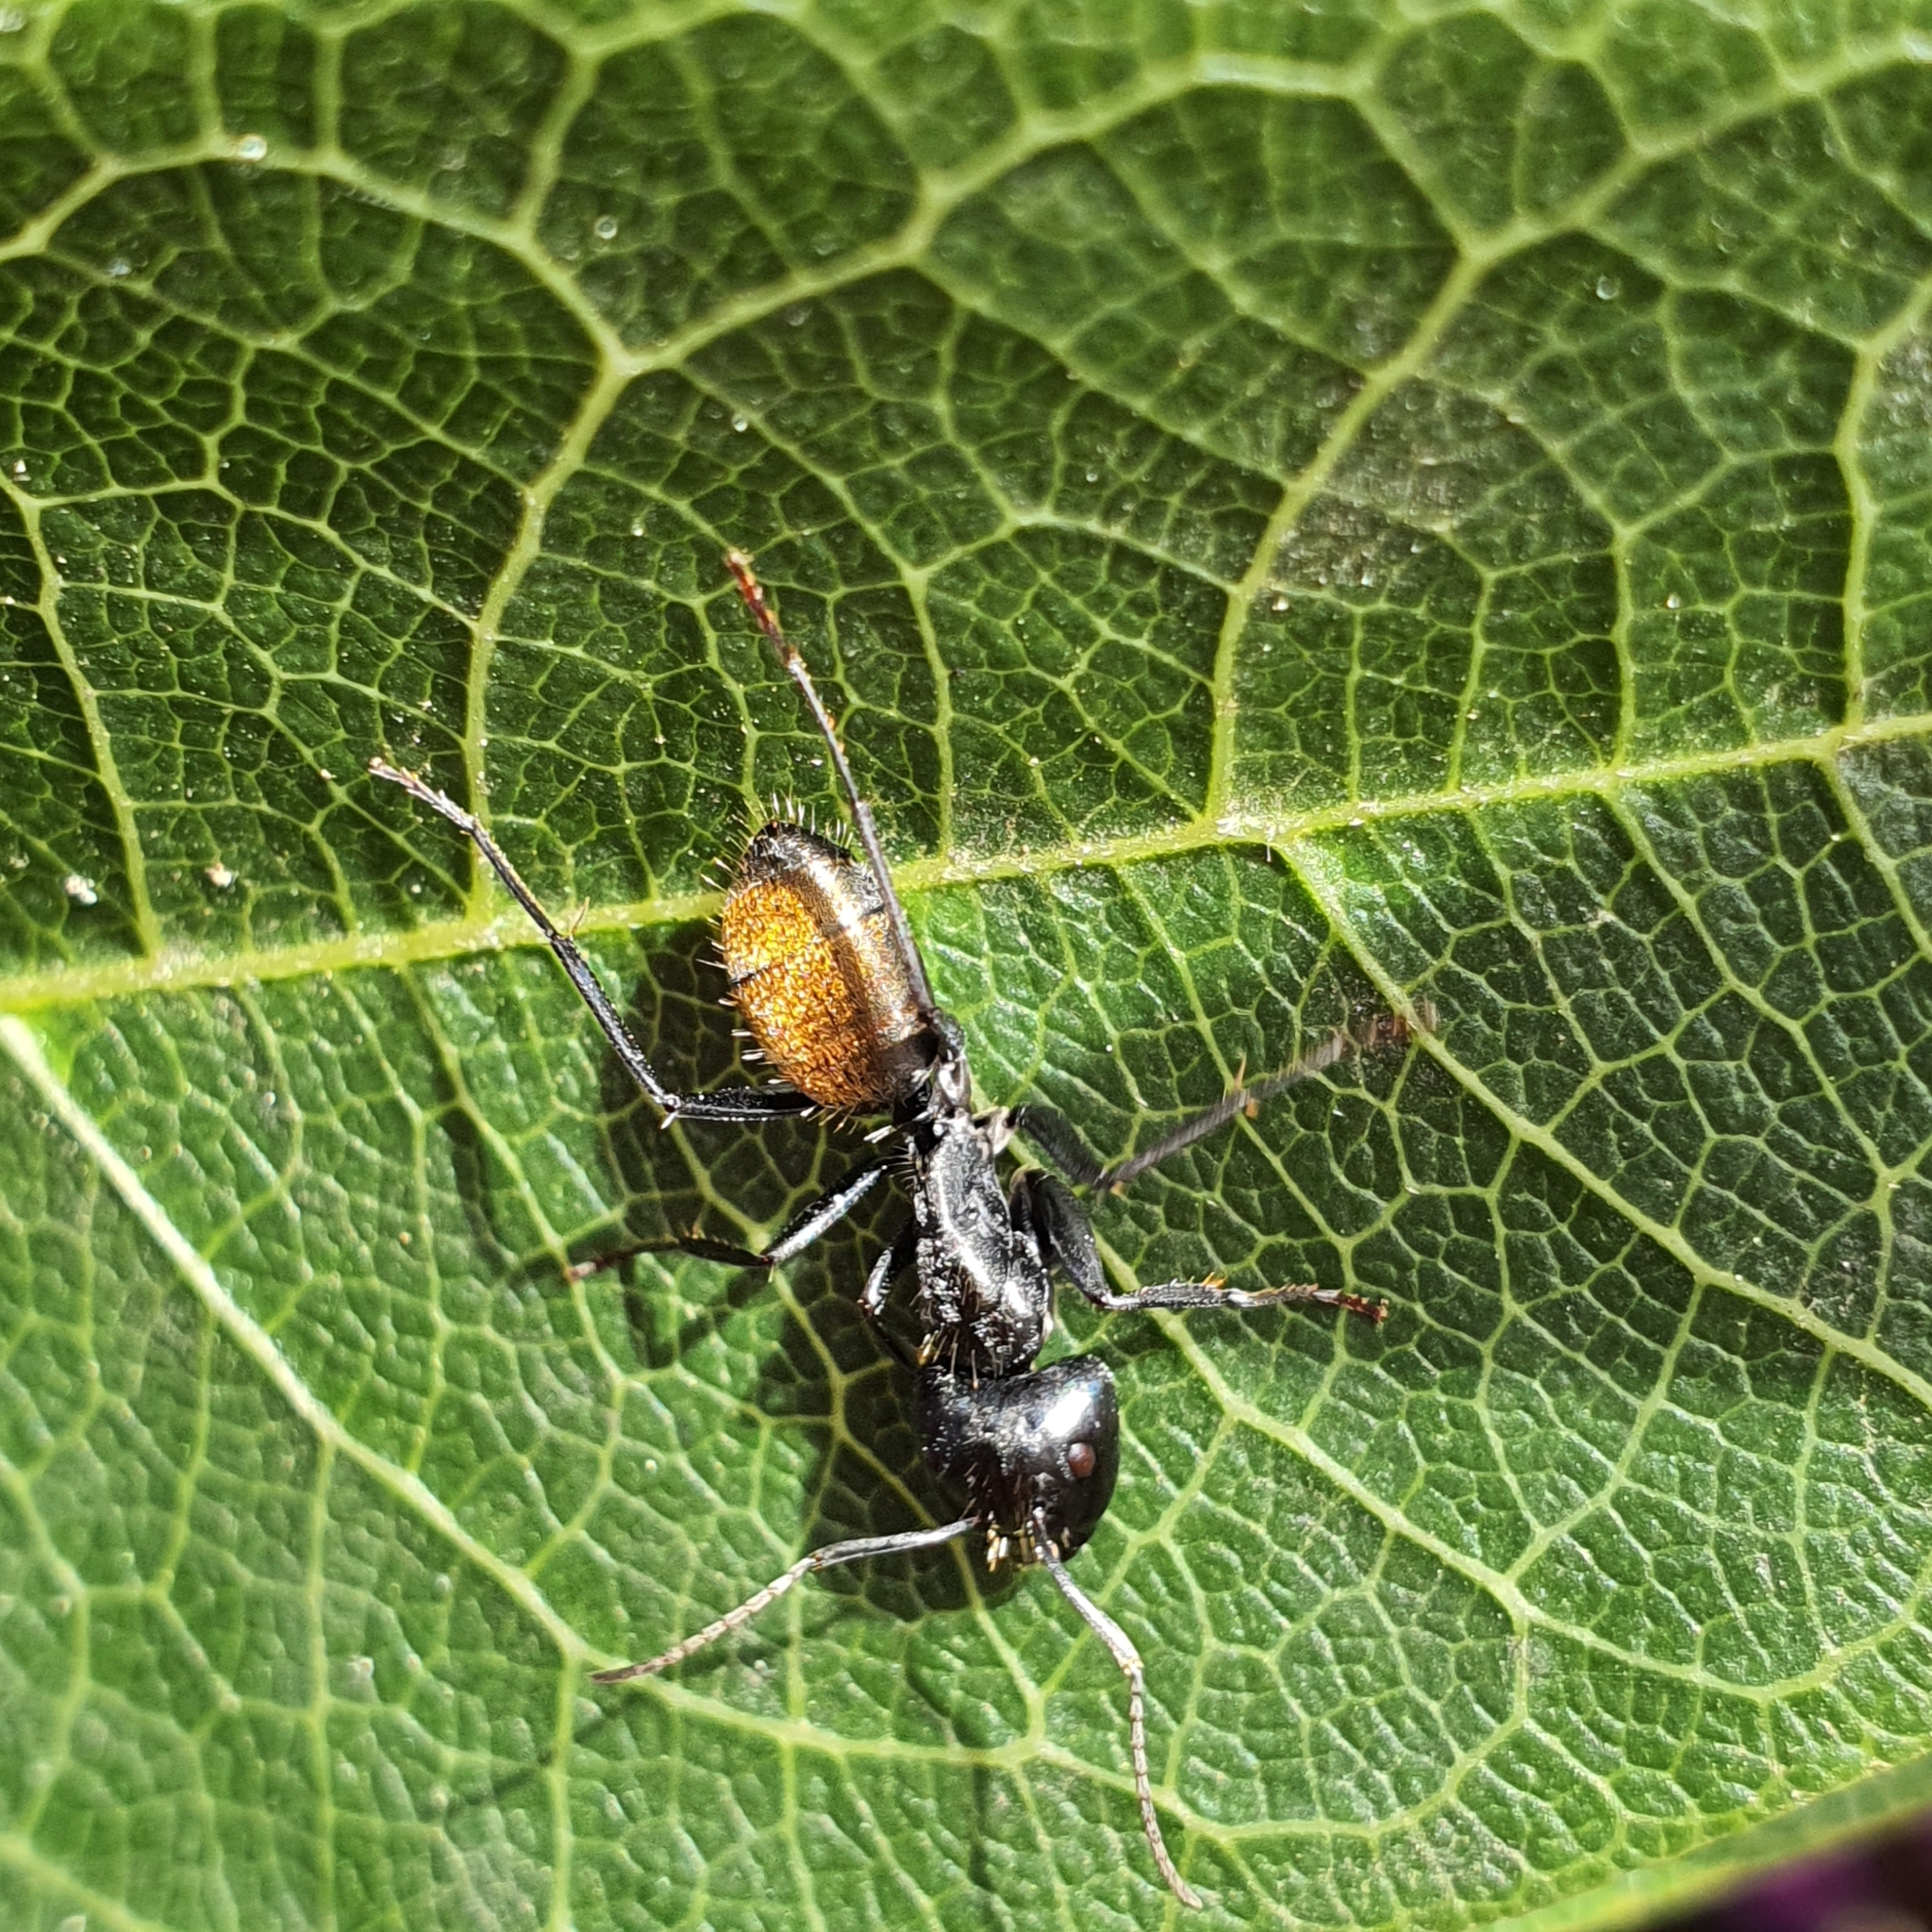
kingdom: Animalia
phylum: Arthropoda
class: Insecta
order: Hymenoptera
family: Formicidae
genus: Camponotus
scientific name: Camponotus aeneopilosus
